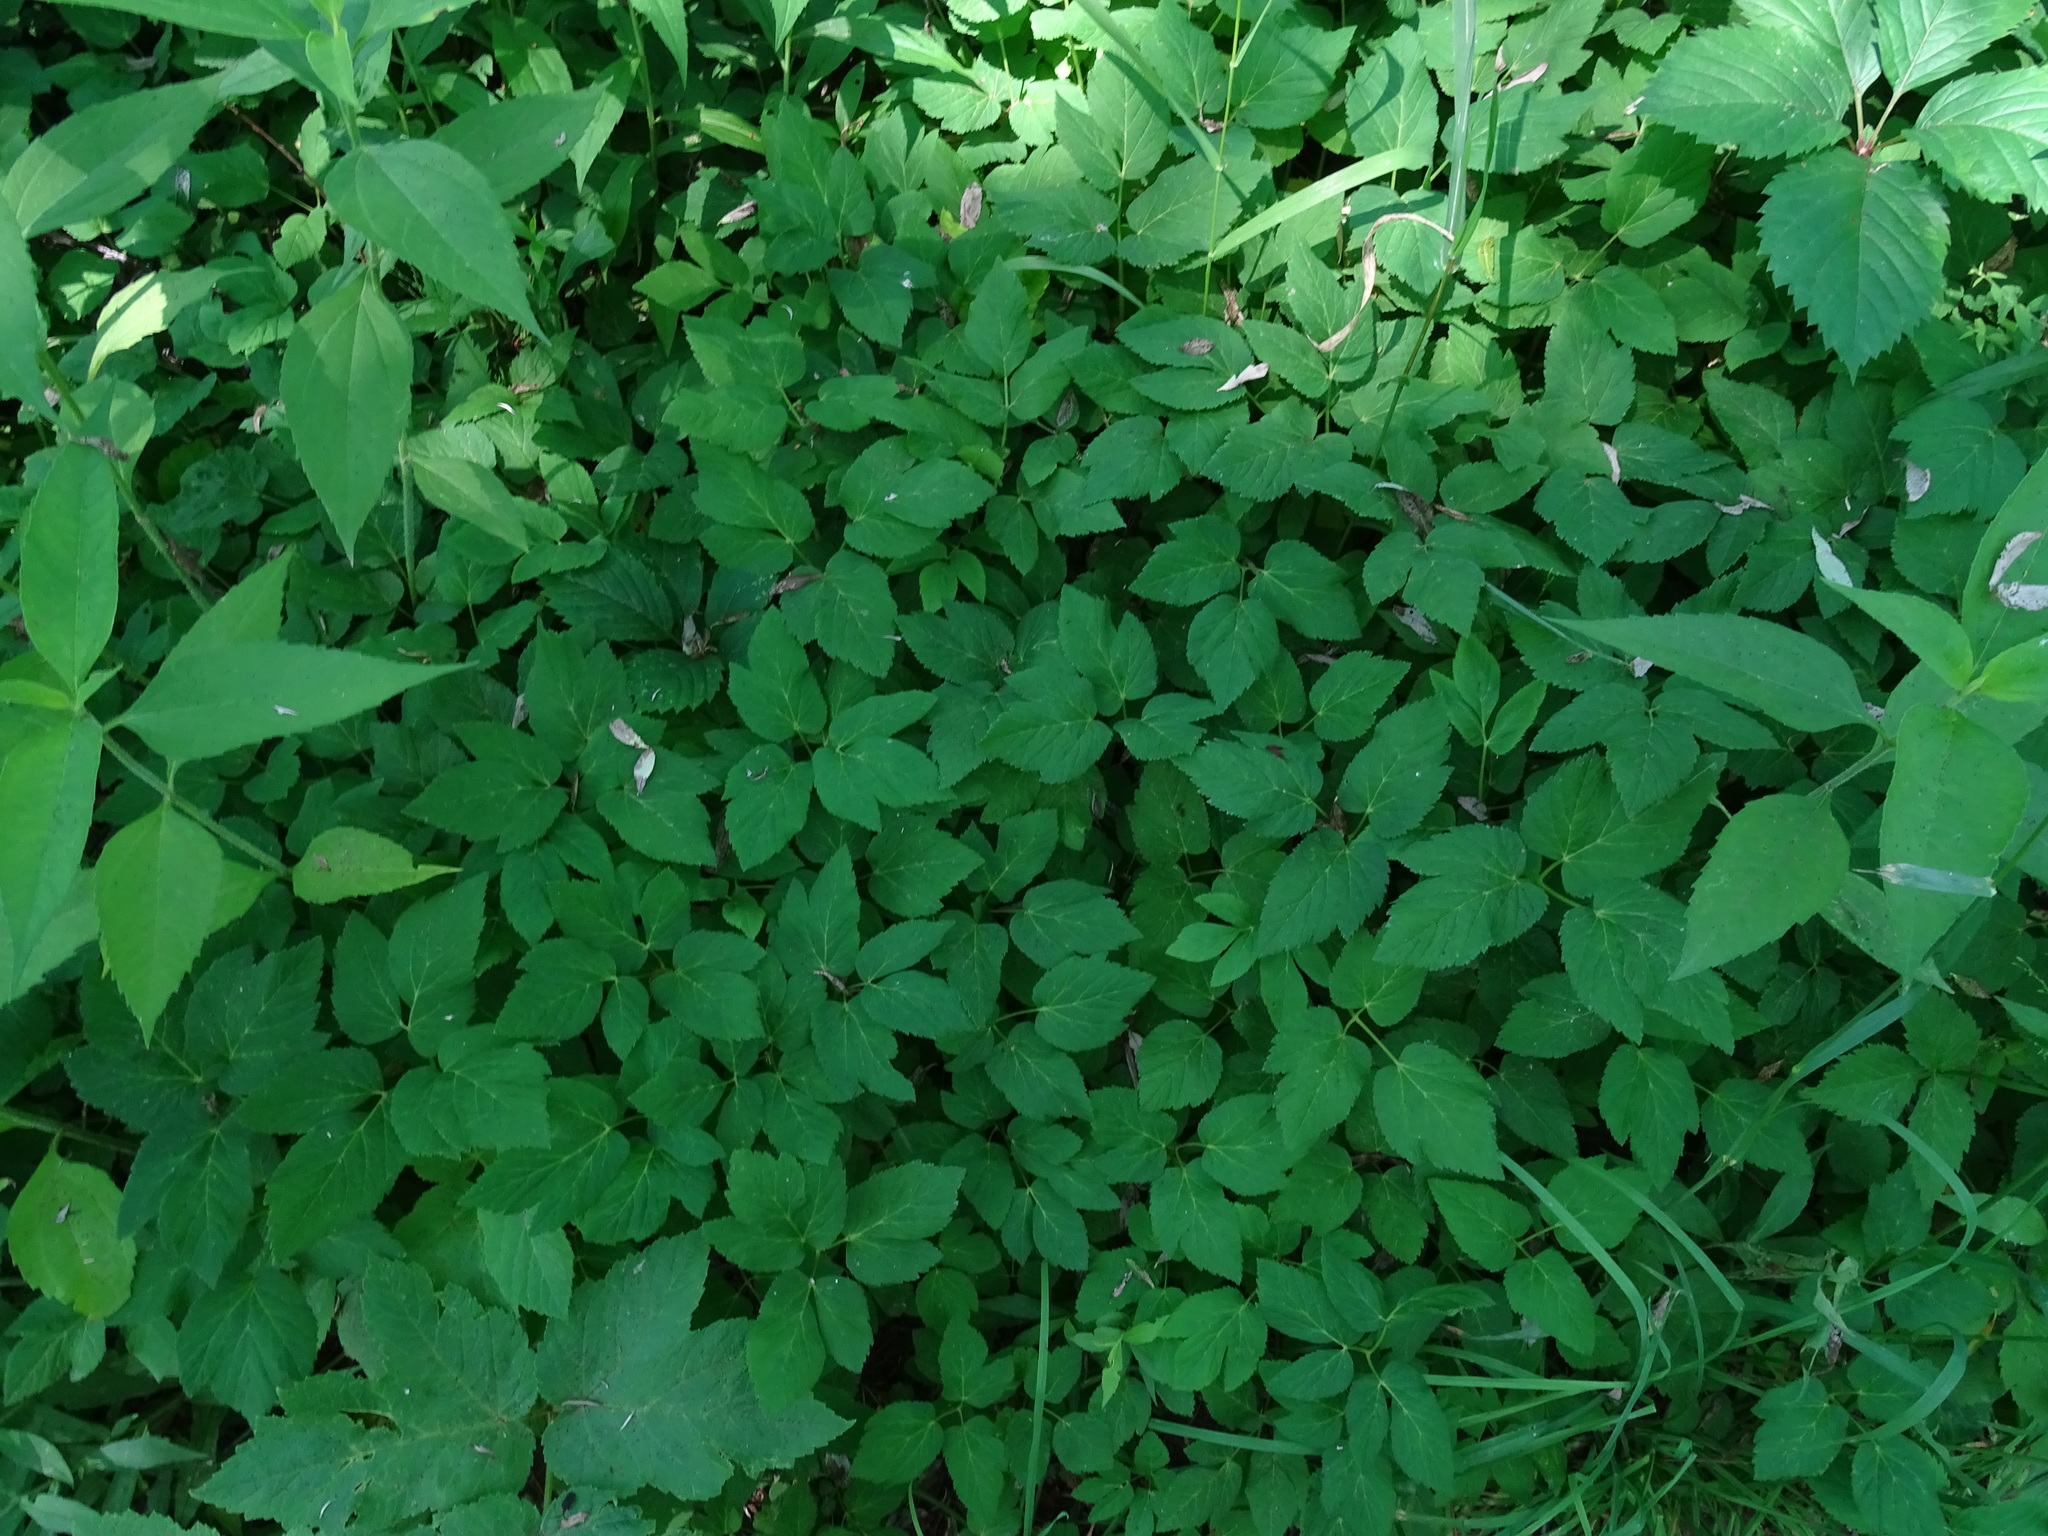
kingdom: Plantae
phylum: Tracheophyta
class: Magnoliopsida
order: Apiales
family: Apiaceae
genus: Aegopodium
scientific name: Aegopodium podagraria
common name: Ground-elder
